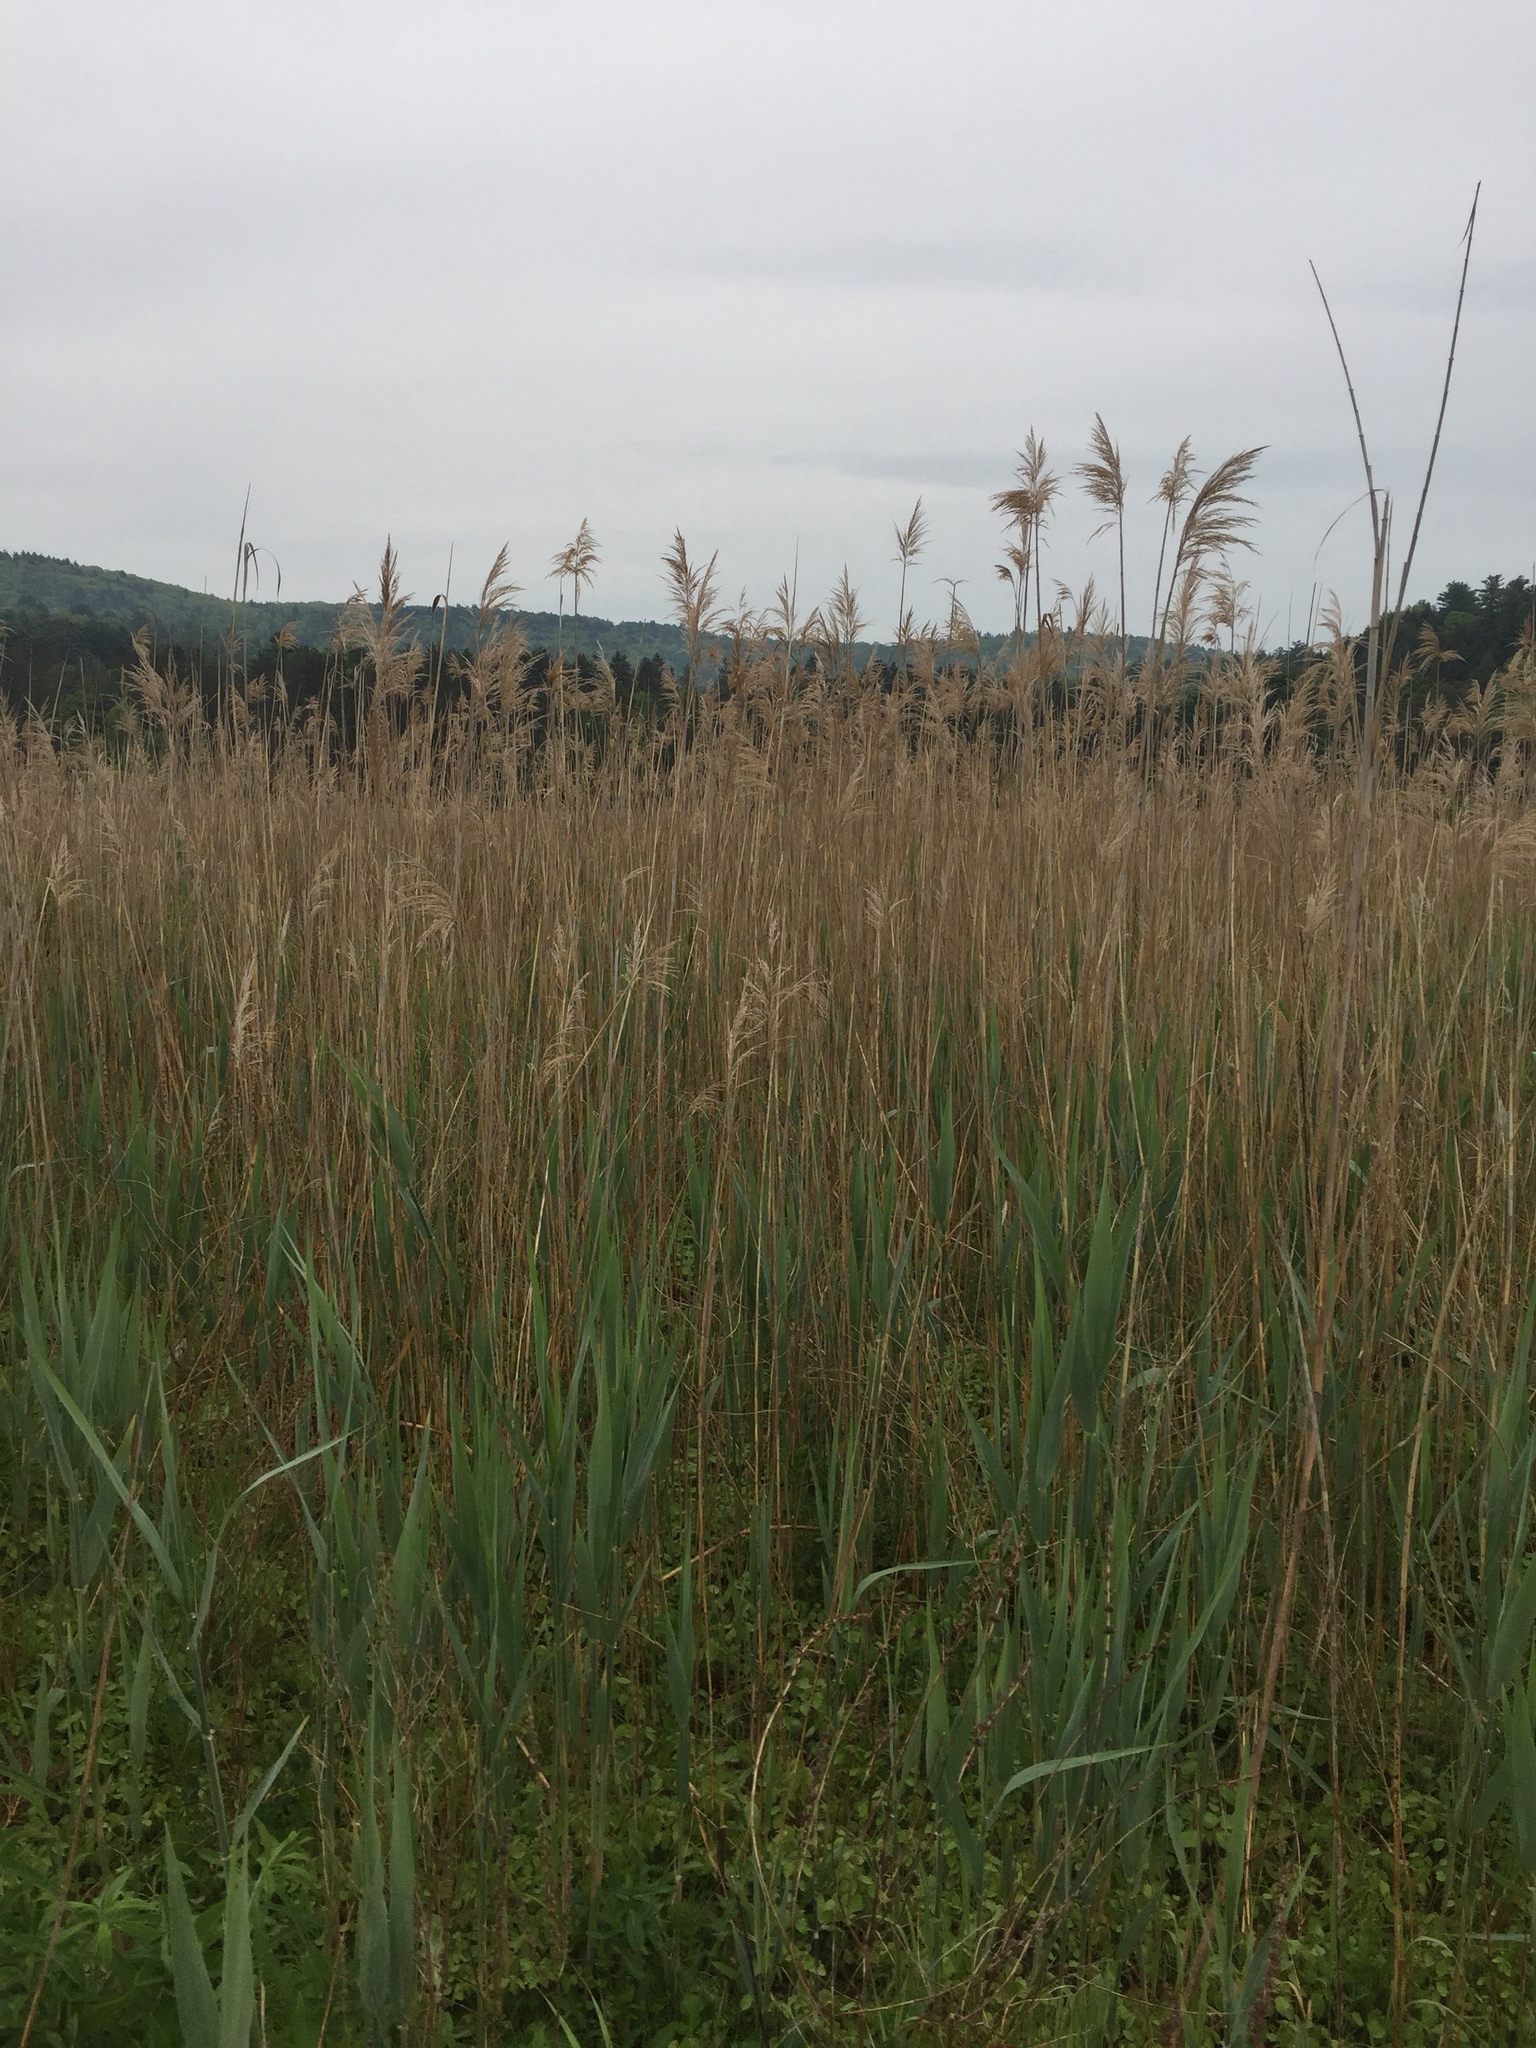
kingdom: Plantae
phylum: Tracheophyta
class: Liliopsida
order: Poales
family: Poaceae
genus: Phragmites
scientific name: Phragmites australis
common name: Common reed
